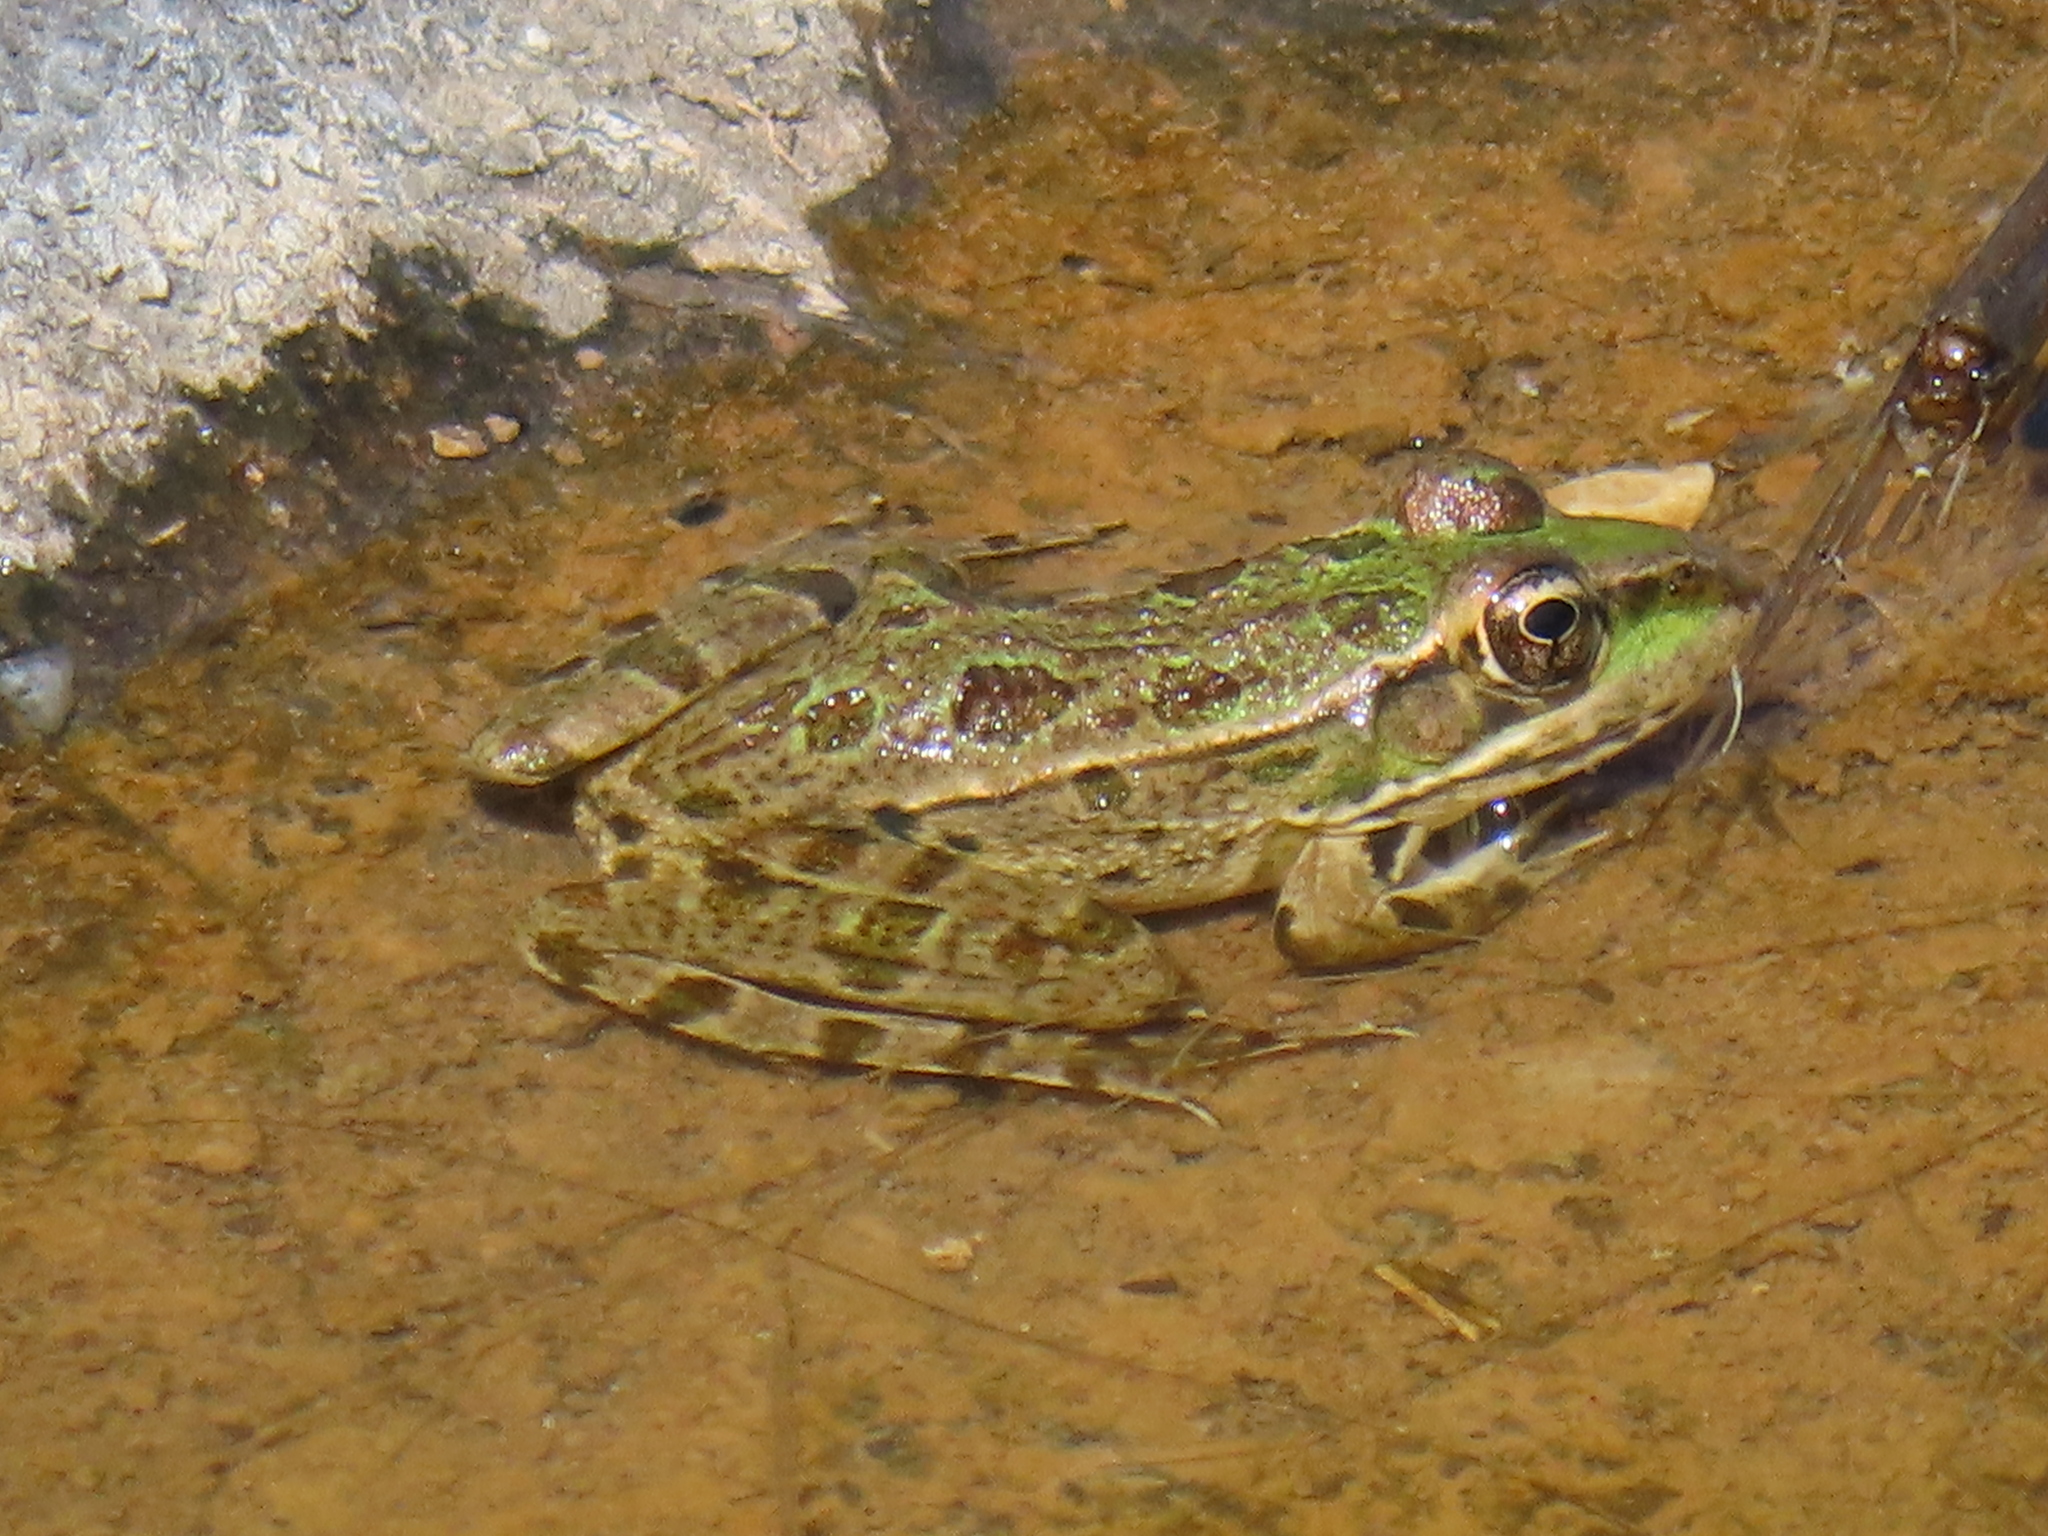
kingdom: Animalia
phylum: Chordata
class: Amphibia
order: Anura
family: Ranidae
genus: Lithobates
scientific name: Lithobates berlandieri
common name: Rio grande leopard frog
